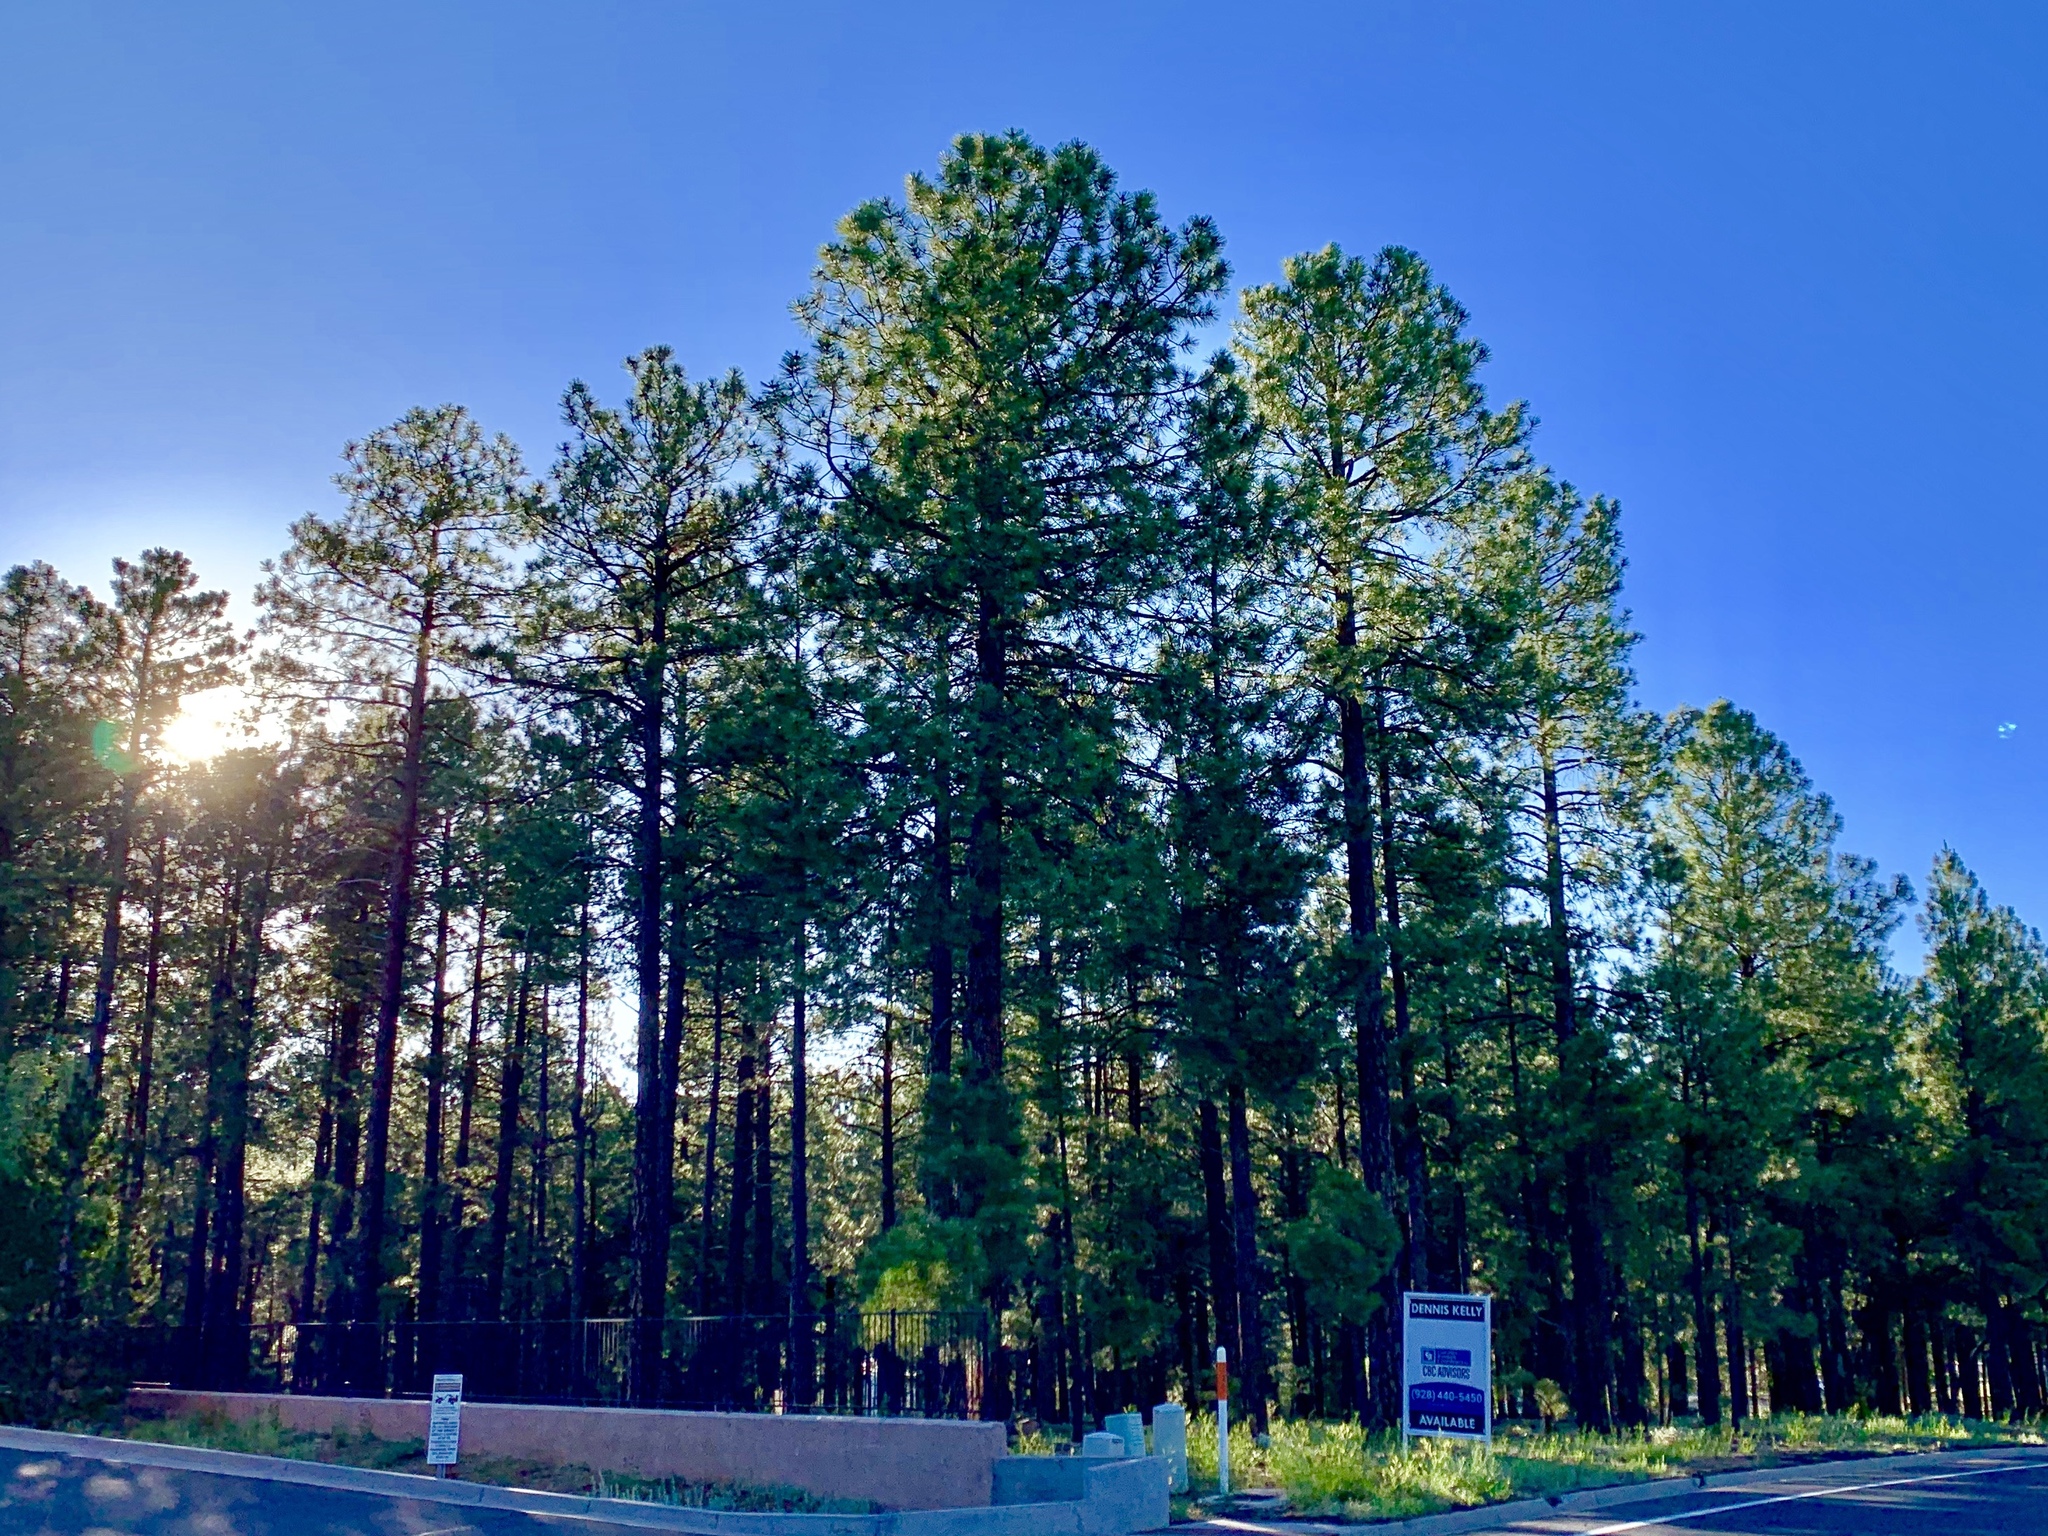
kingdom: Plantae
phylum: Tracheophyta
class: Pinopsida
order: Pinales
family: Pinaceae
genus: Pinus
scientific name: Pinus ponderosa
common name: Western yellow-pine
